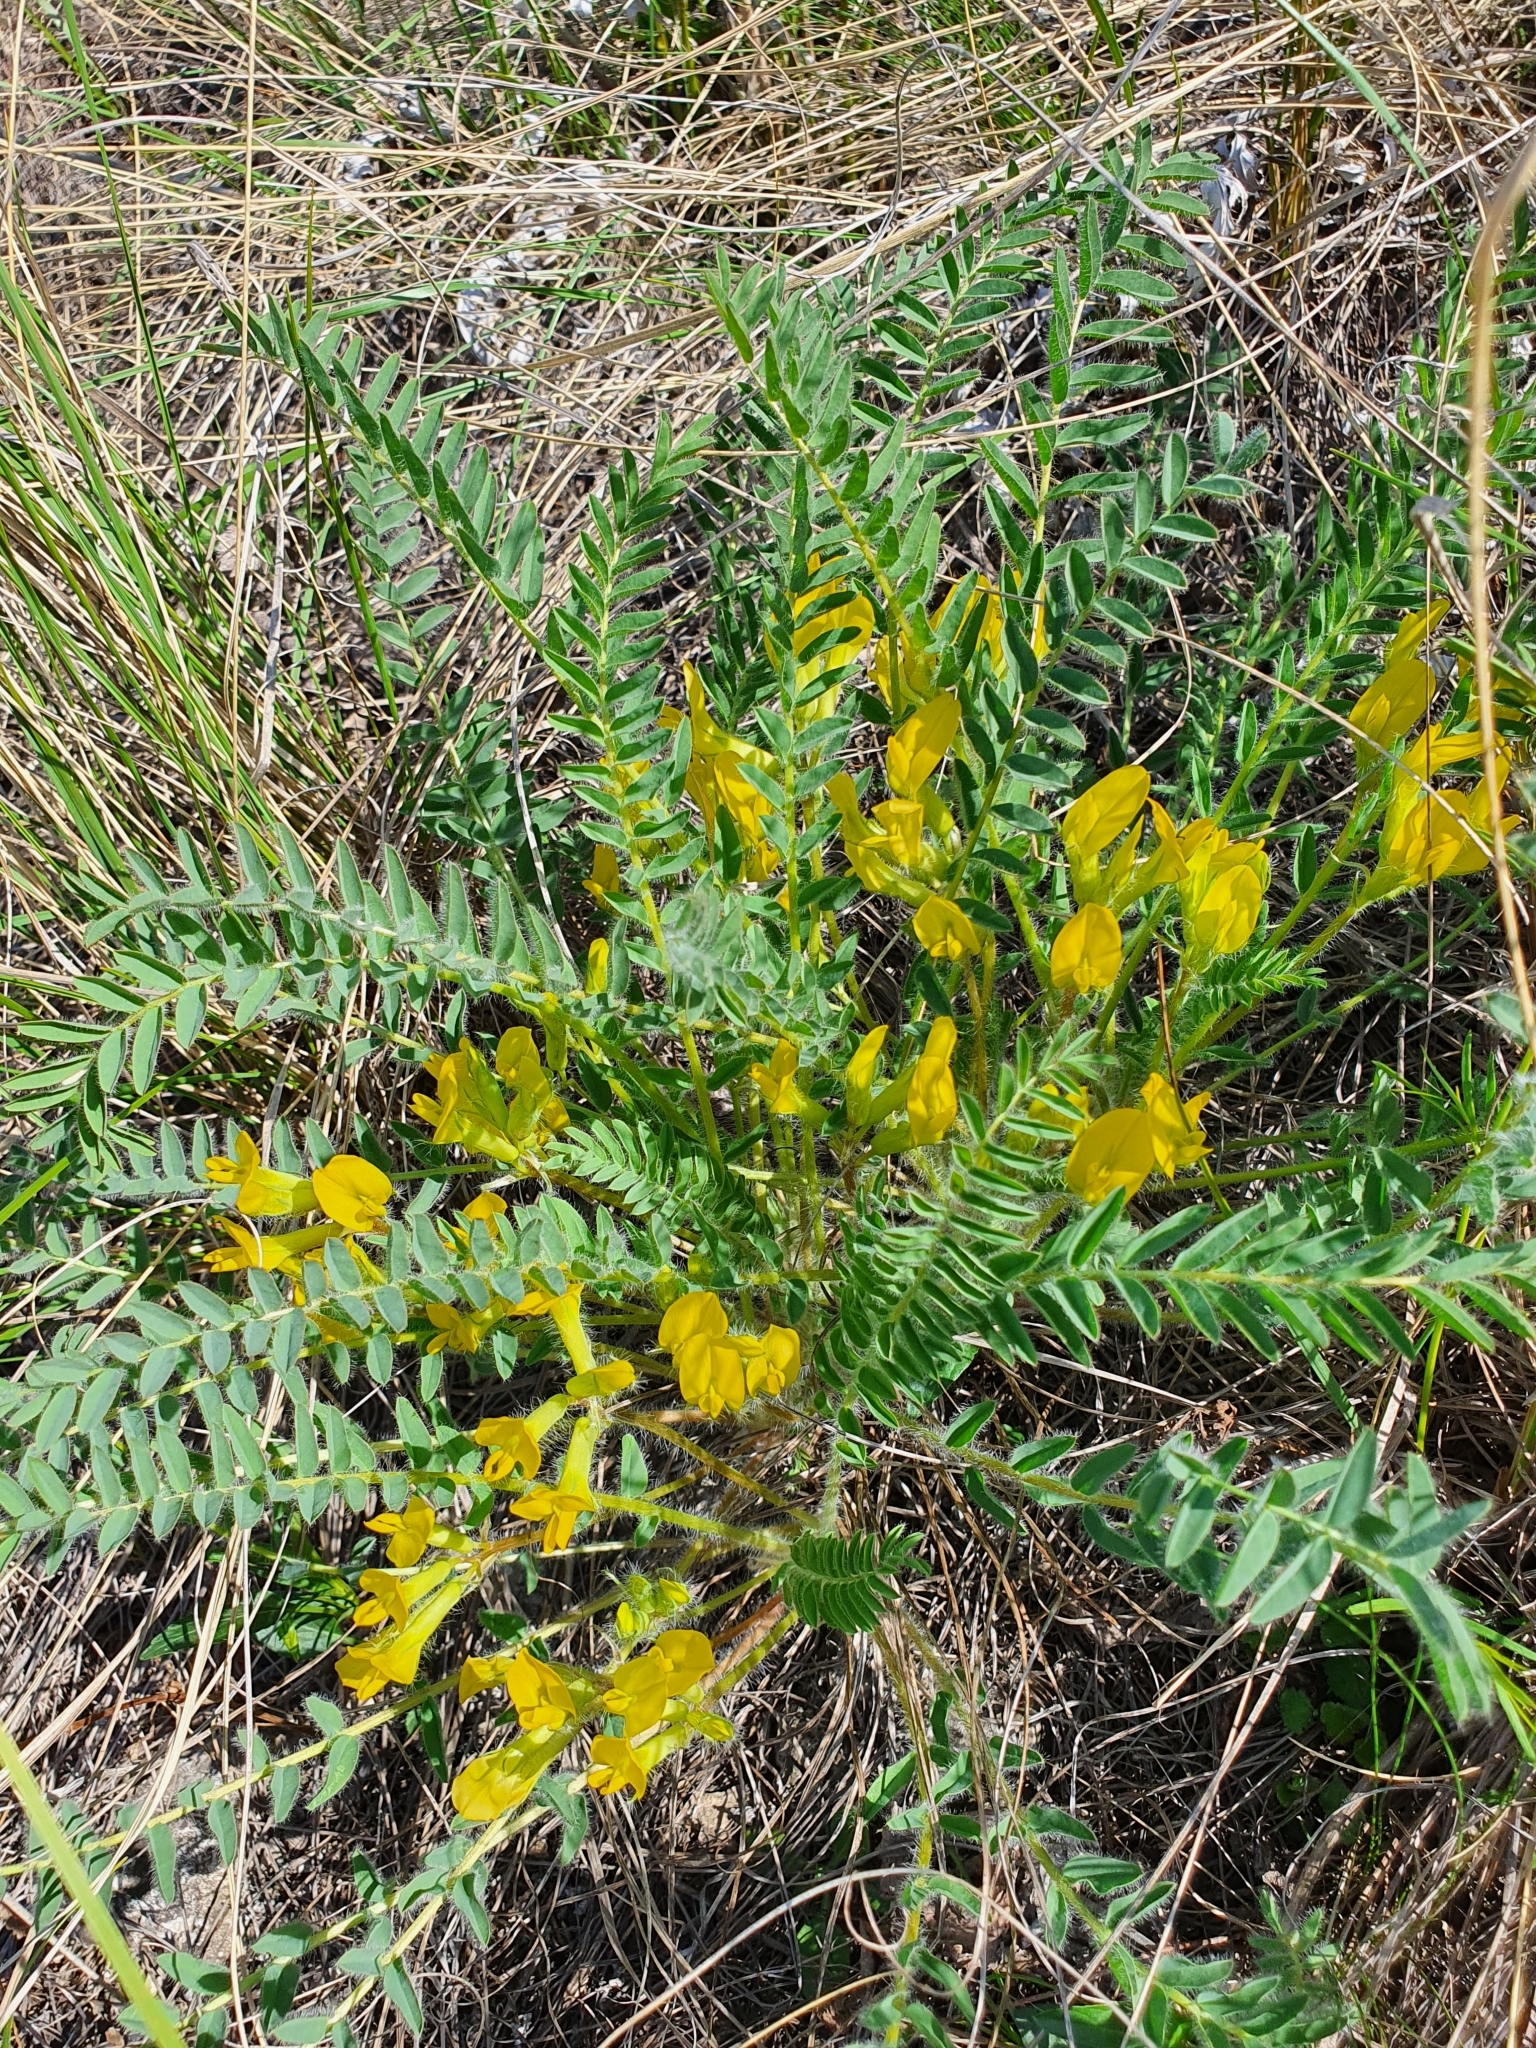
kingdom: Plantae
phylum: Tracheophyta
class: Magnoliopsida
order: Fabales
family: Fabaceae
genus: Astragalus
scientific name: Astragalus wolgensis
